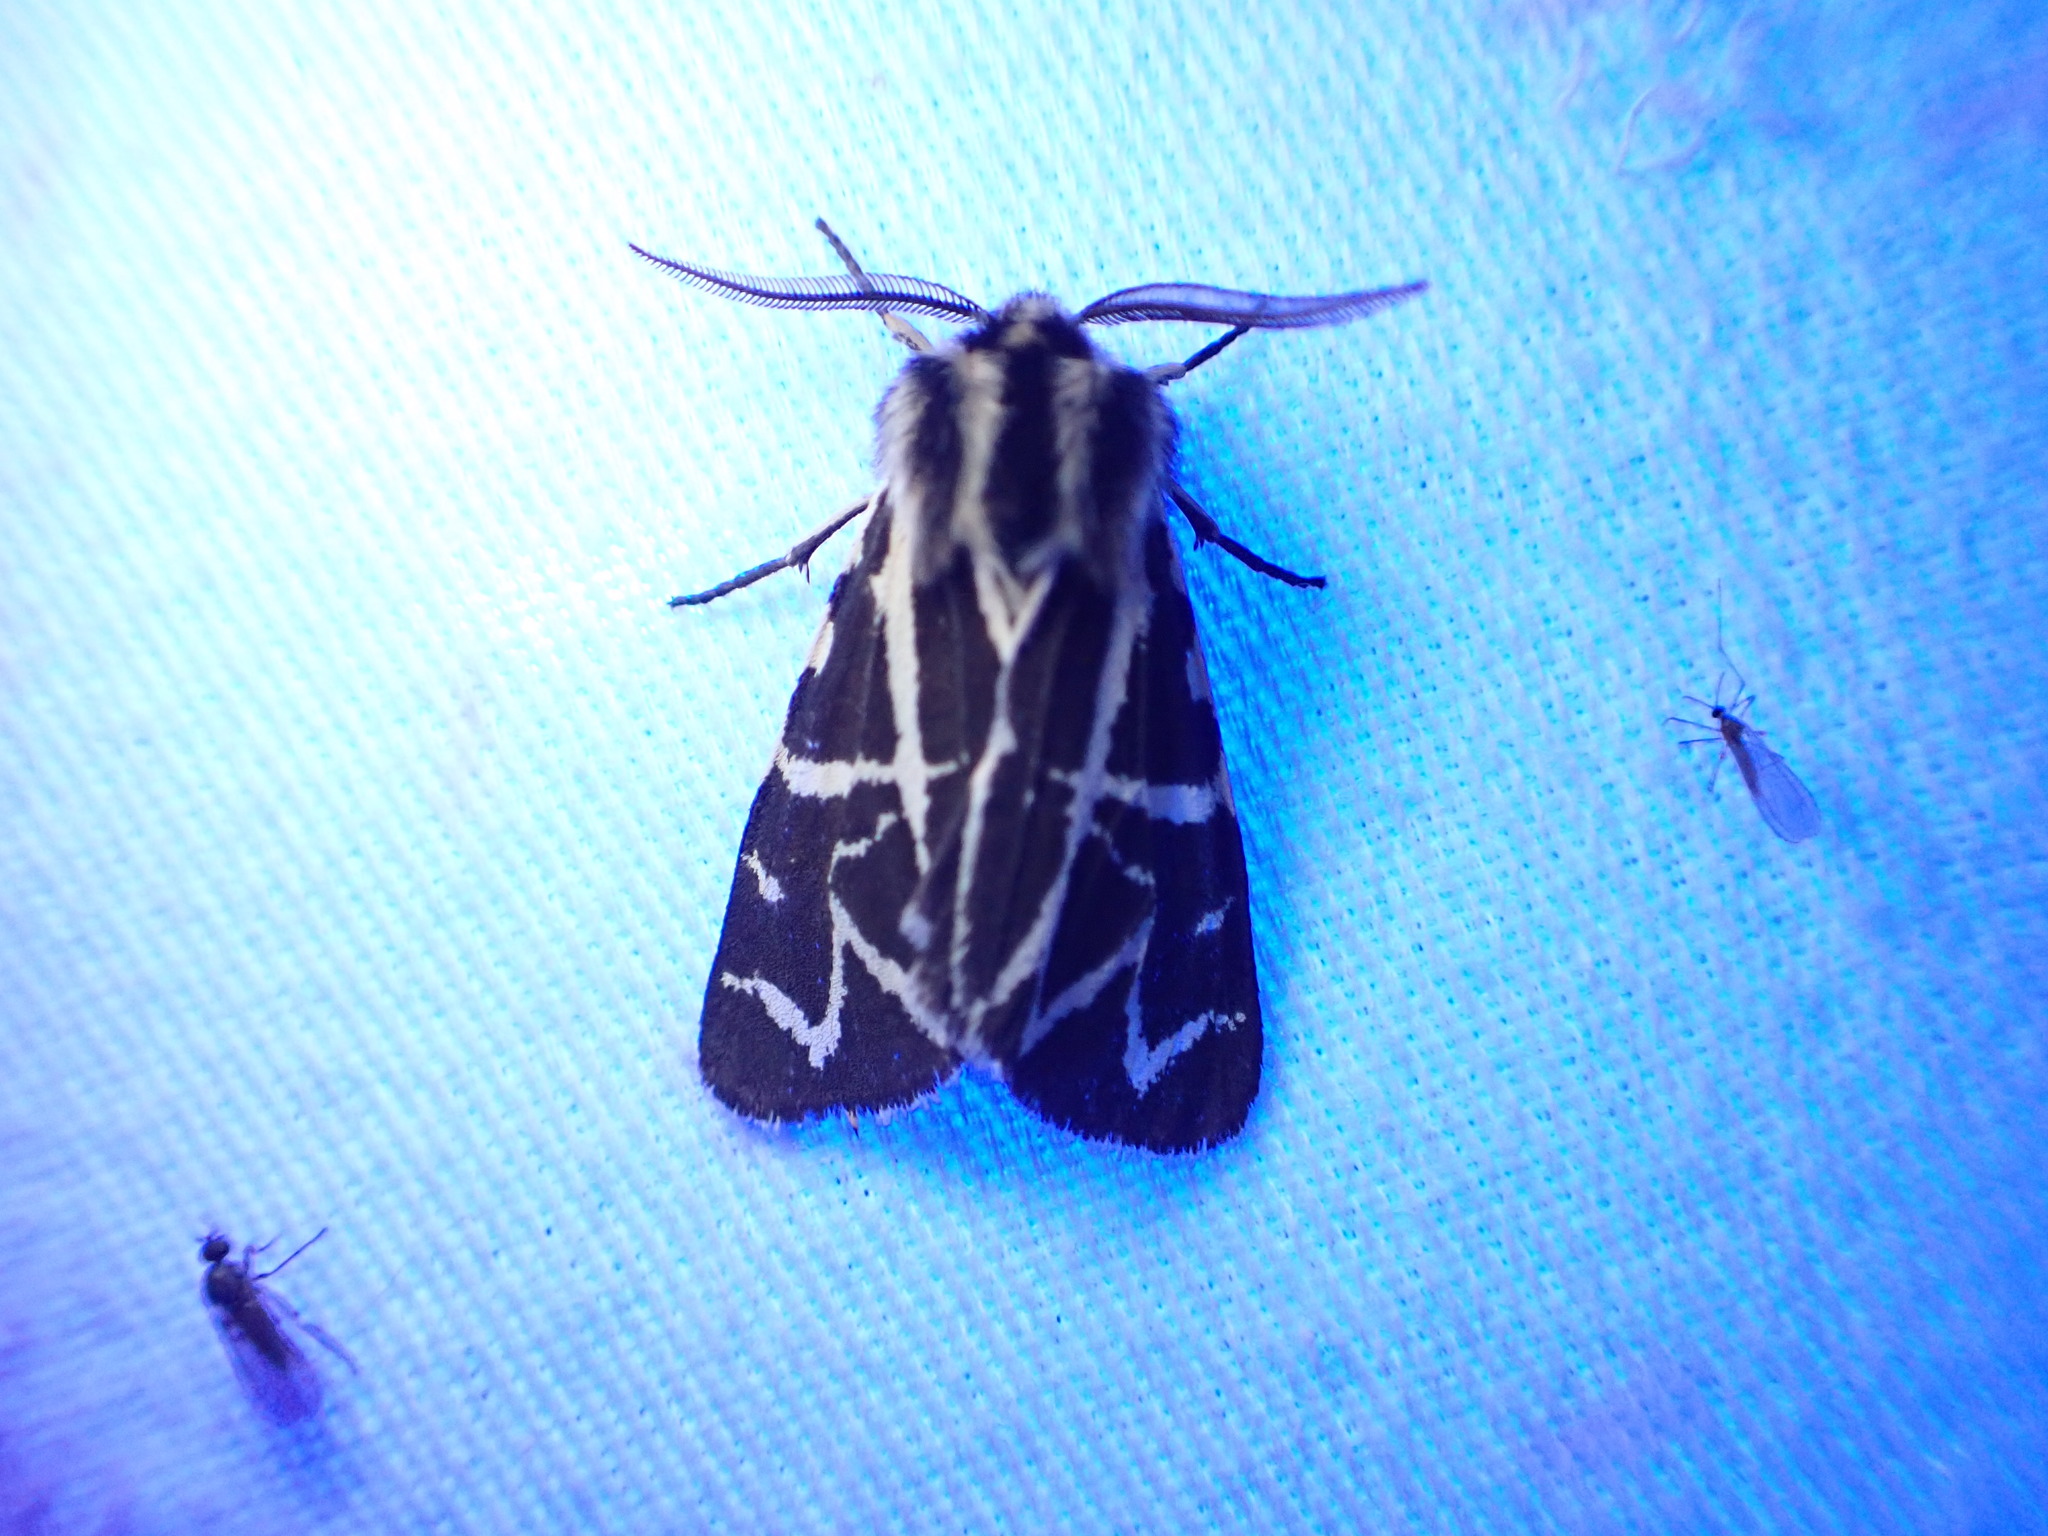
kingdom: Animalia
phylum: Arthropoda
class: Insecta
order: Lepidoptera
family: Erebidae
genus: Apantesis
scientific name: Apantesis
